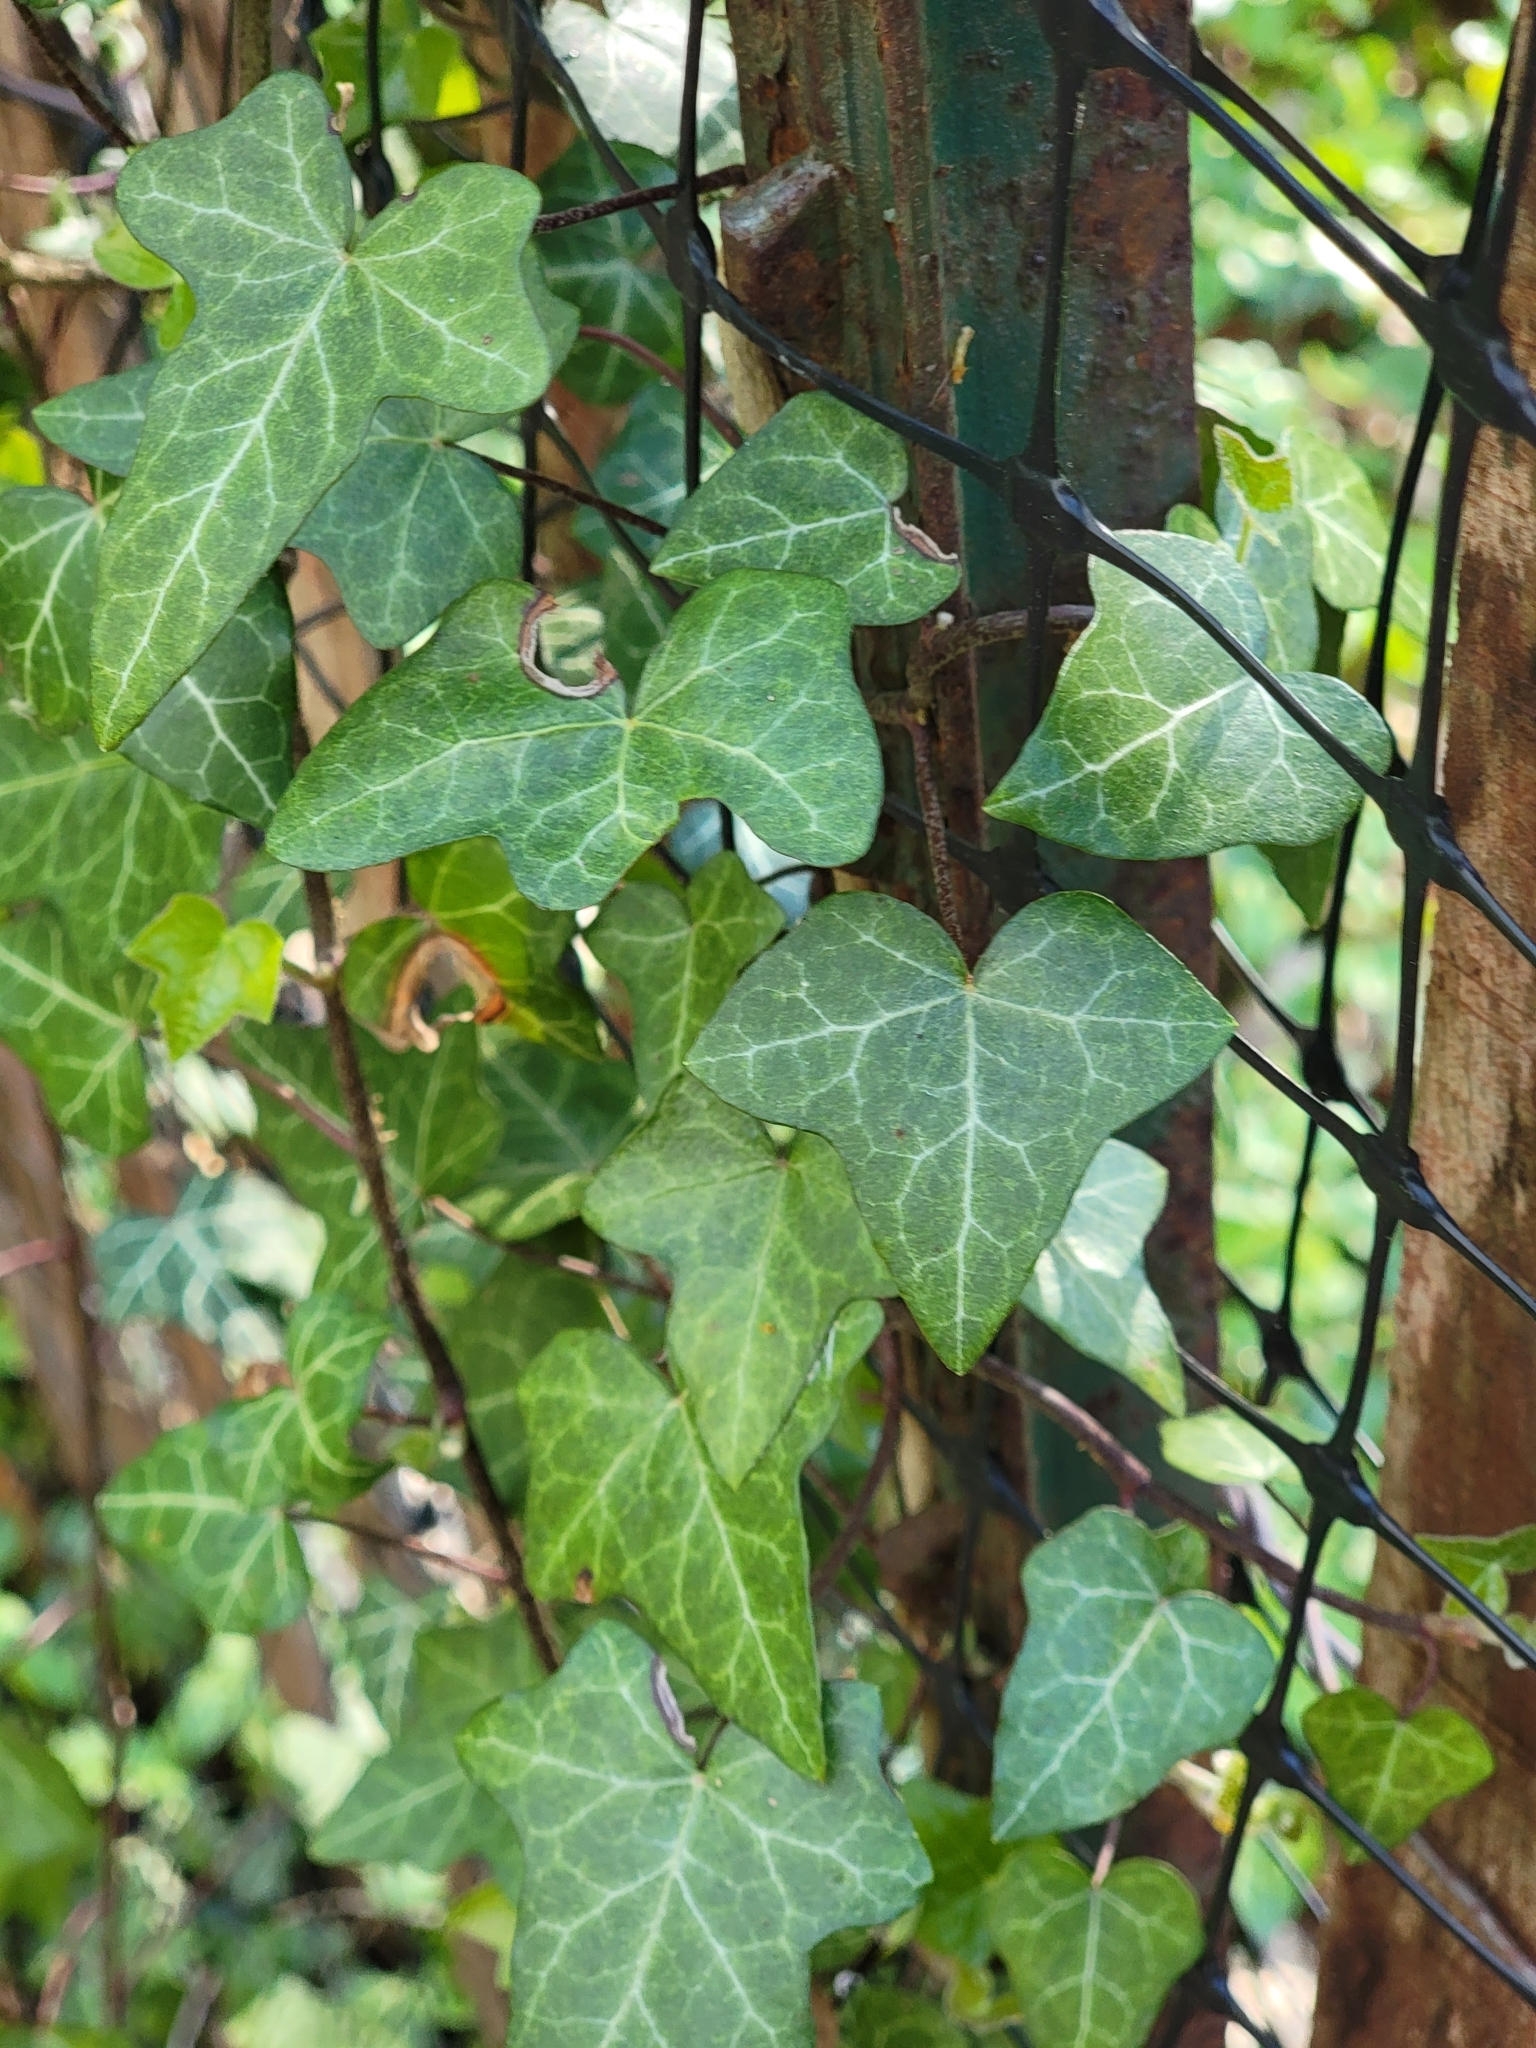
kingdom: Plantae
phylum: Tracheophyta
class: Magnoliopsida
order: Apiales
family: Araliaceae
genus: Hedera
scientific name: Hedera helix
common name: Ivy
